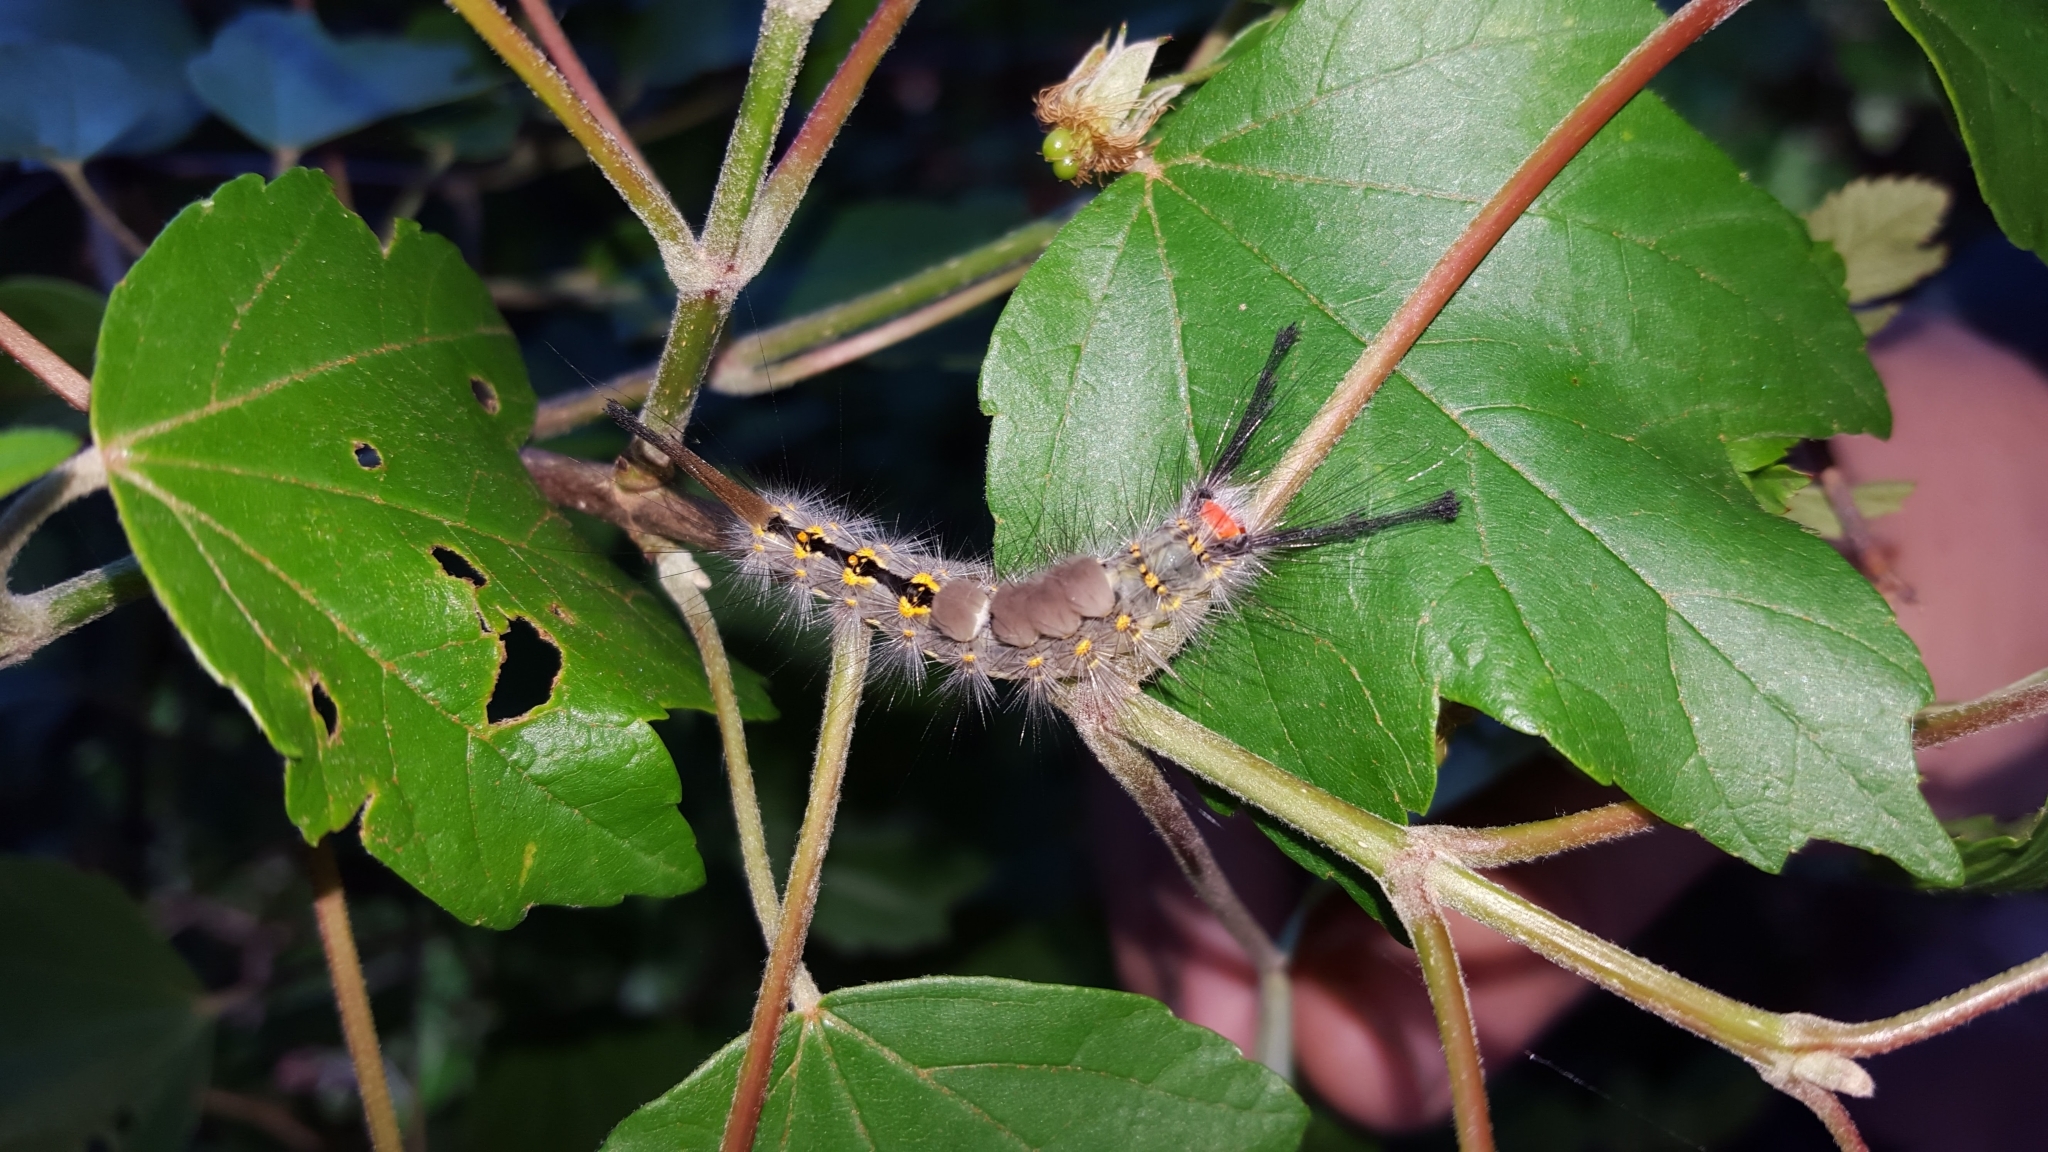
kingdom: Animalia
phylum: Arthropoda
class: Insecta
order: Lepidoptera
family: Erebidae
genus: Orgyia
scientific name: Orgyia detrita
